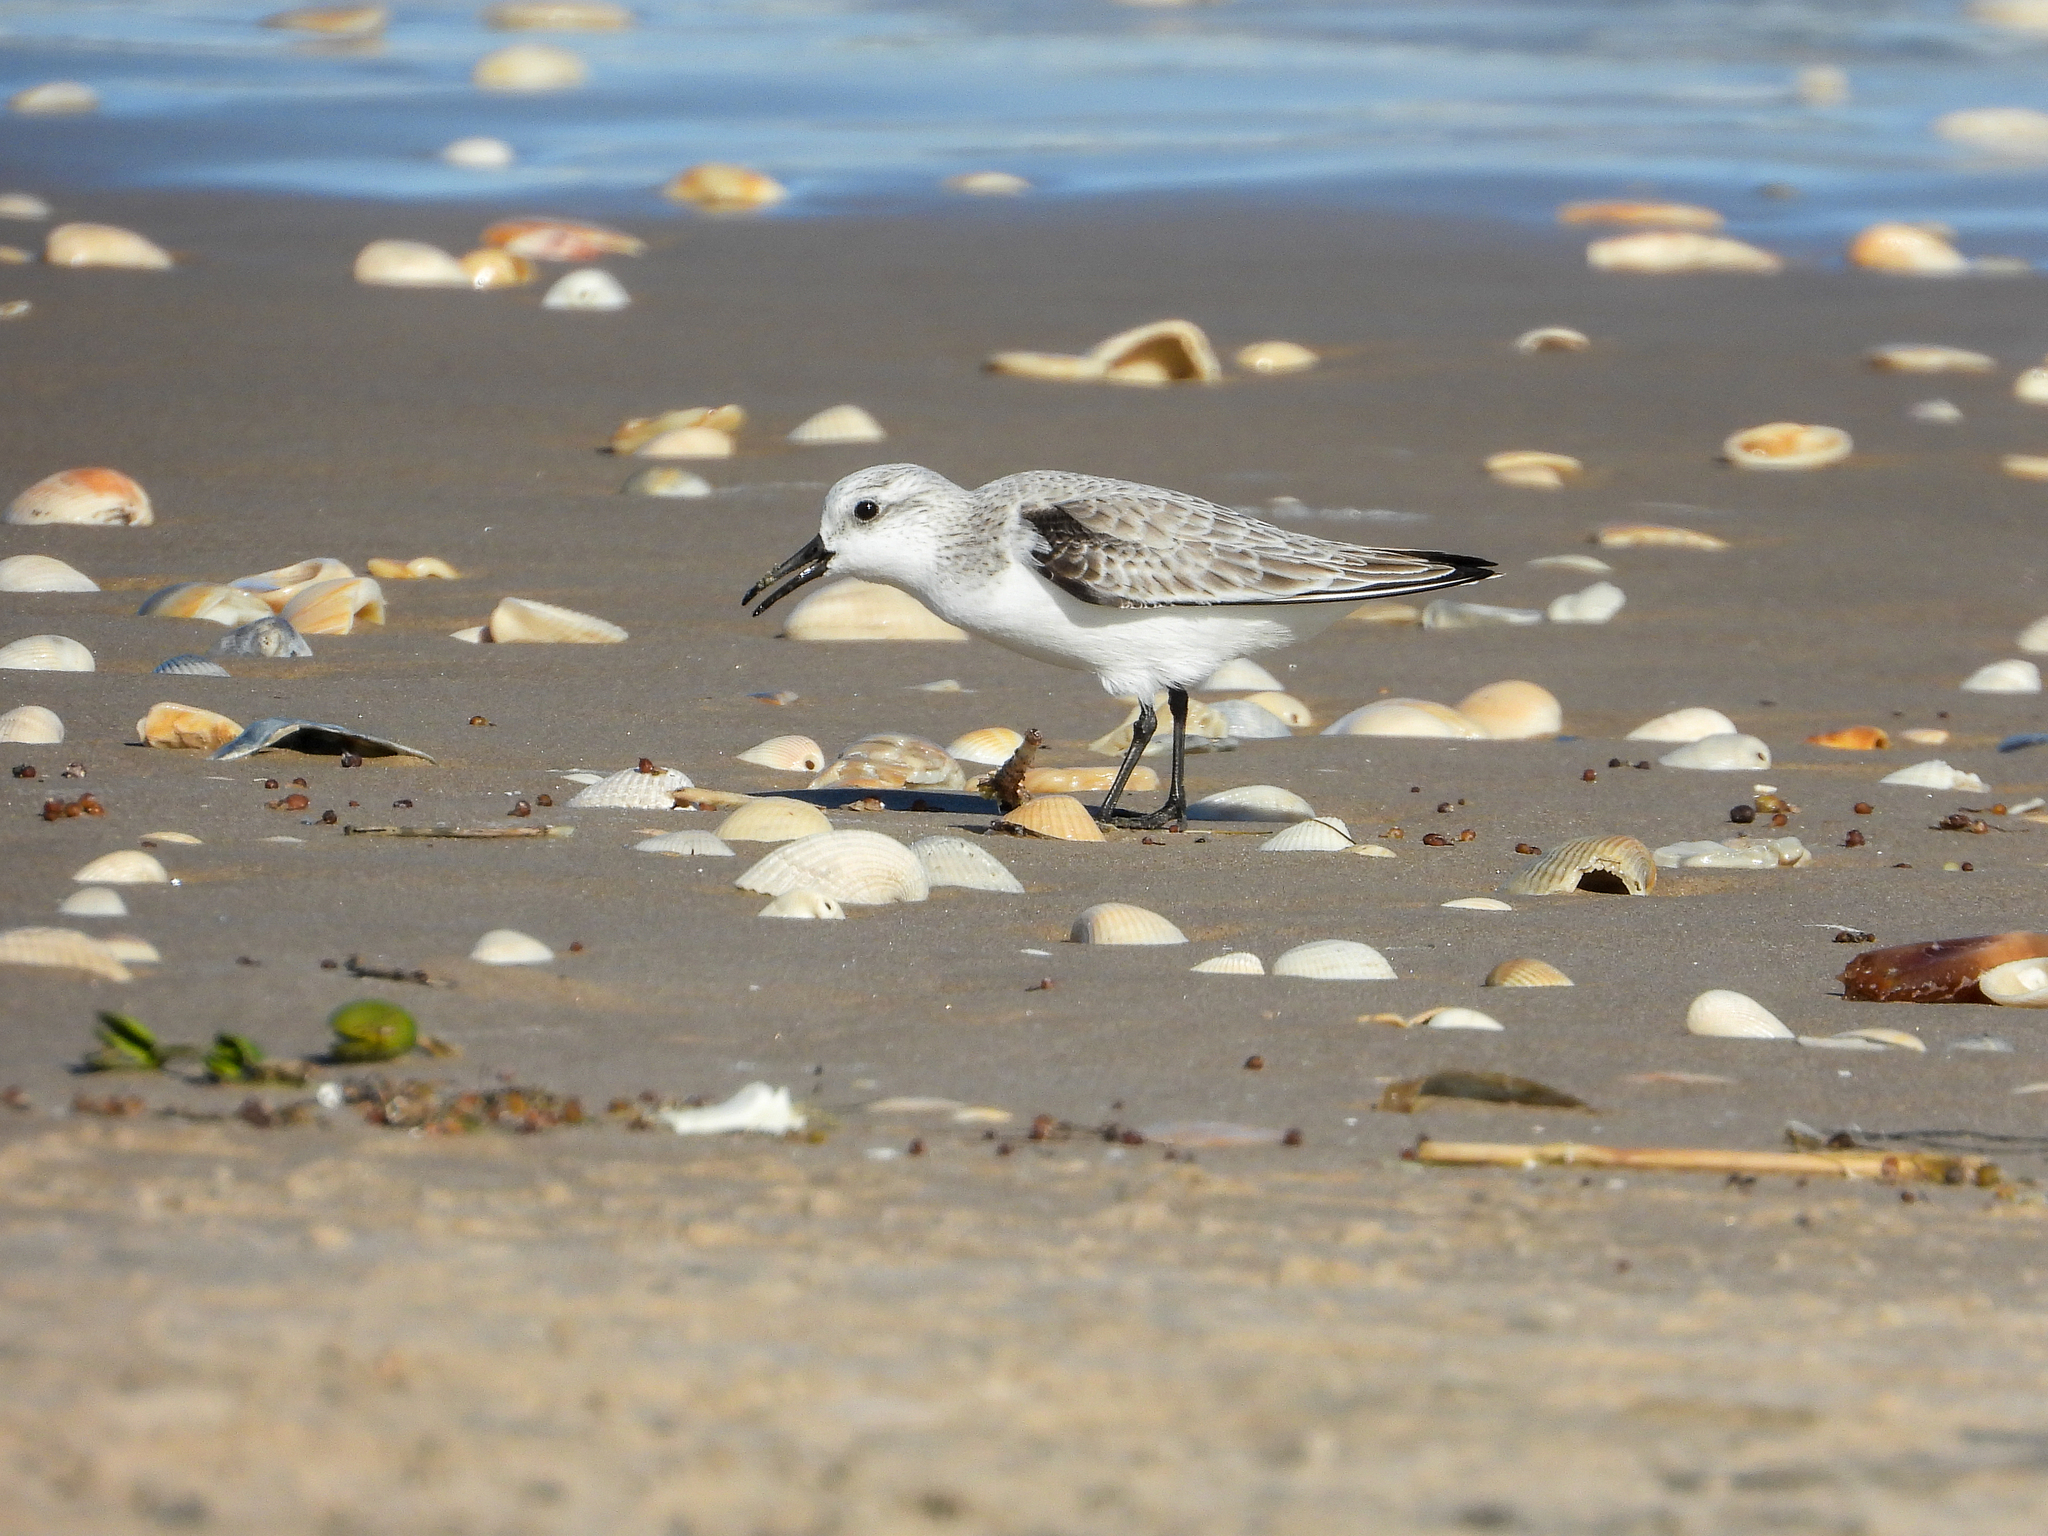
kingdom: Animalia
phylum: Chordata
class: Aves
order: Charadriiformes
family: Scolopacidae
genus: Calidris
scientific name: Calidris alba
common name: Sanderling
